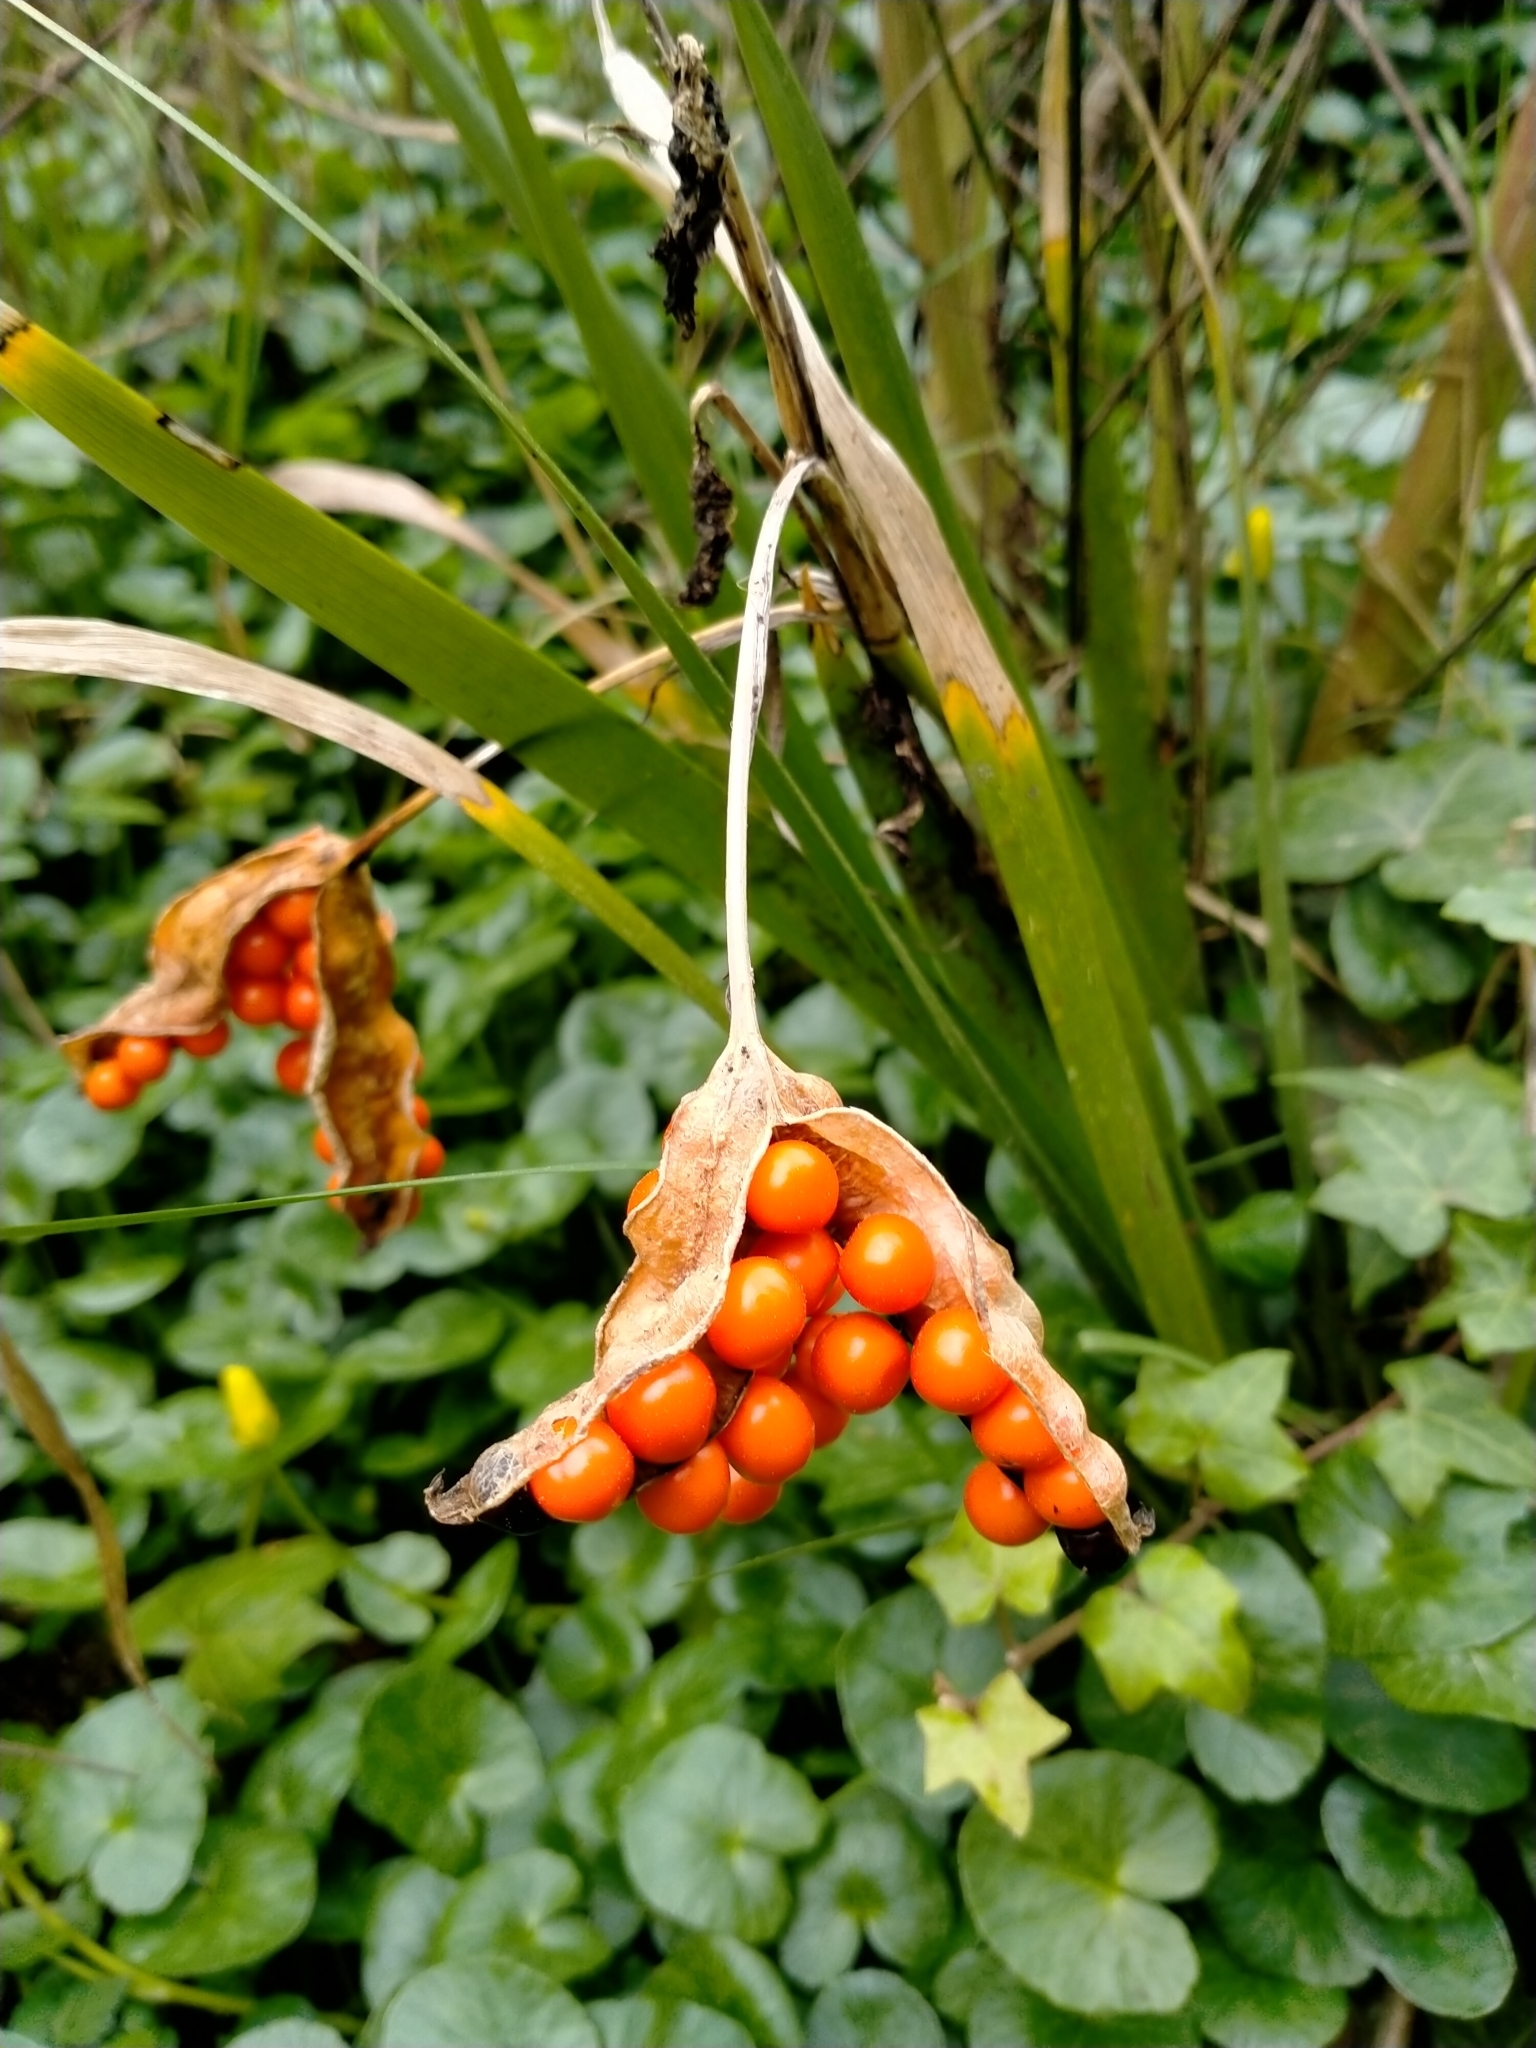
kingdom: Plantae
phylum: Tracheophyta
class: Liliopsida
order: Asparagales
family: Iridaceae
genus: Iris
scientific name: Iris foetidissima
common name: Stinking iris
